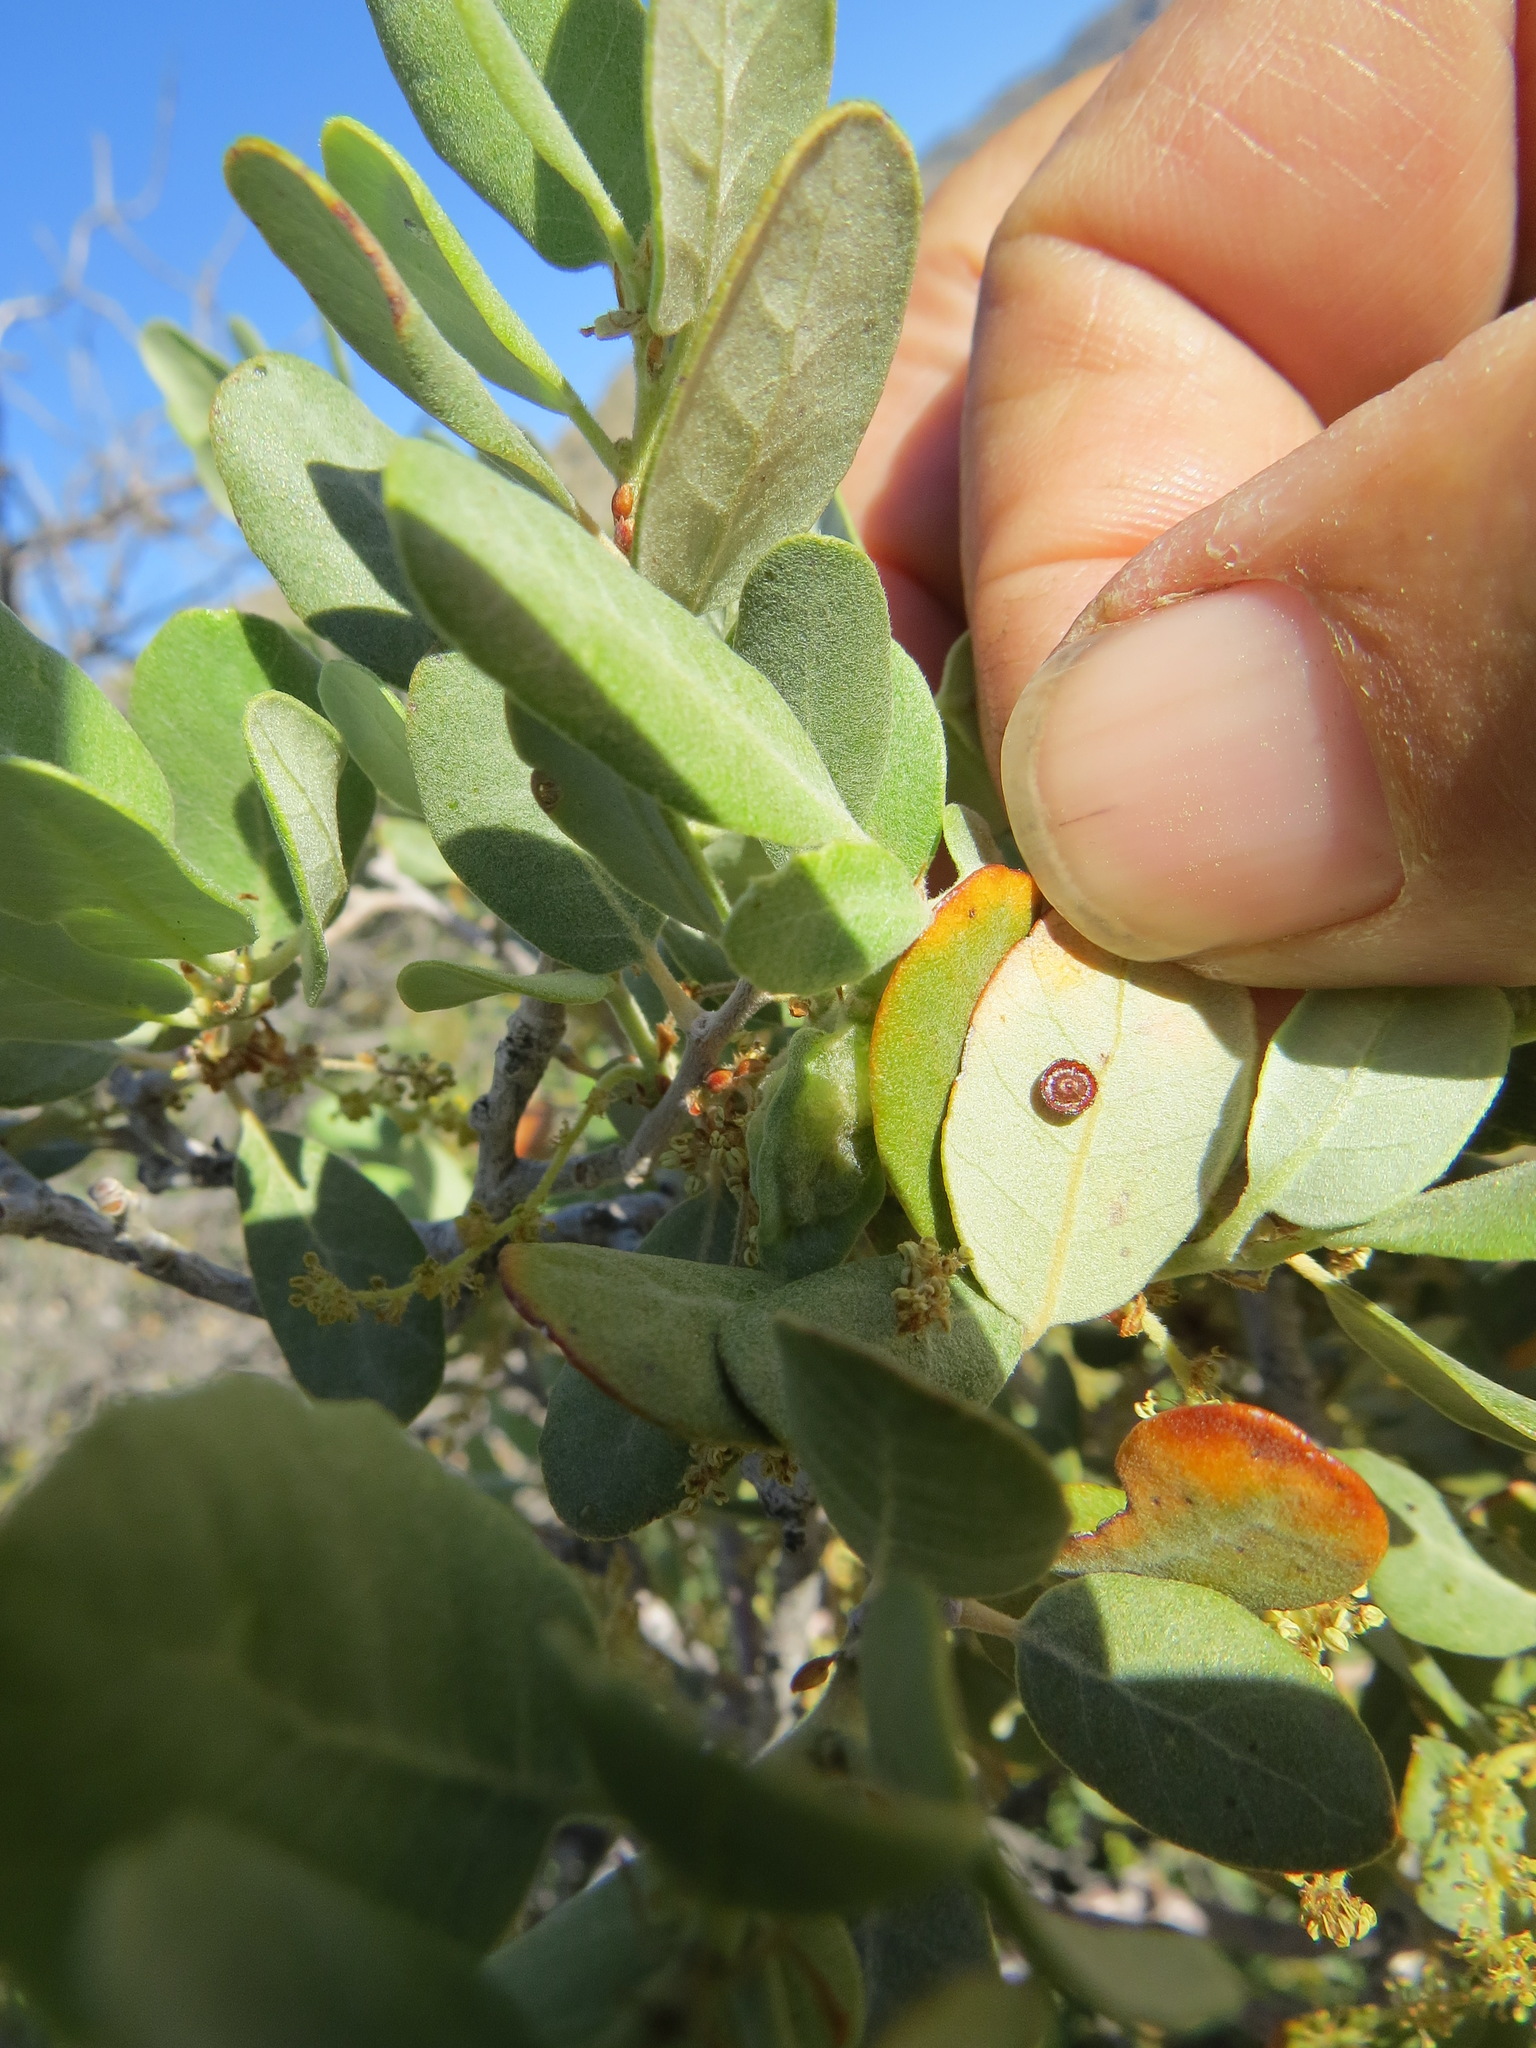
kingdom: Animalia
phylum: Arthropoda
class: Insecta
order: Hymenoptera
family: Cynipidae
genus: Andricus
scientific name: Andricus
